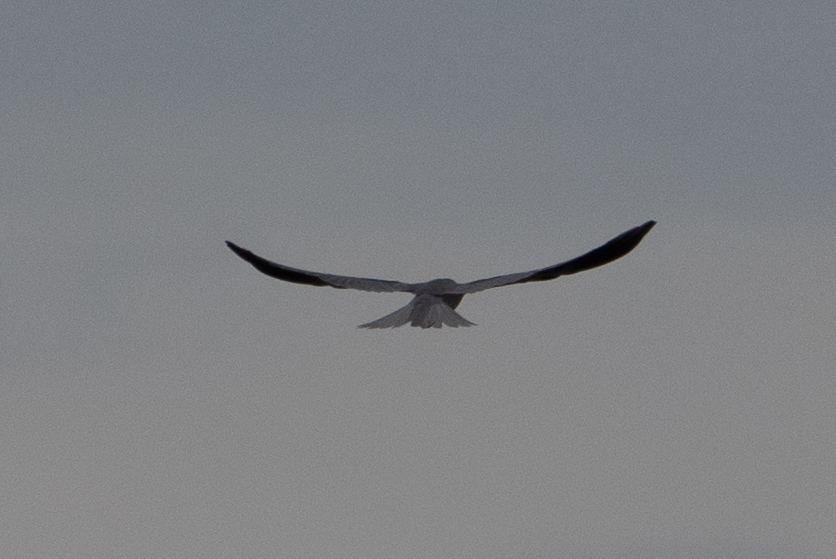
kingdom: Animalia
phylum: Chordata
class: Aves
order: Accipitriformes
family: Accipitridae
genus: Elanus
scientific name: Elanus leucurus
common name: White-tailed kite
